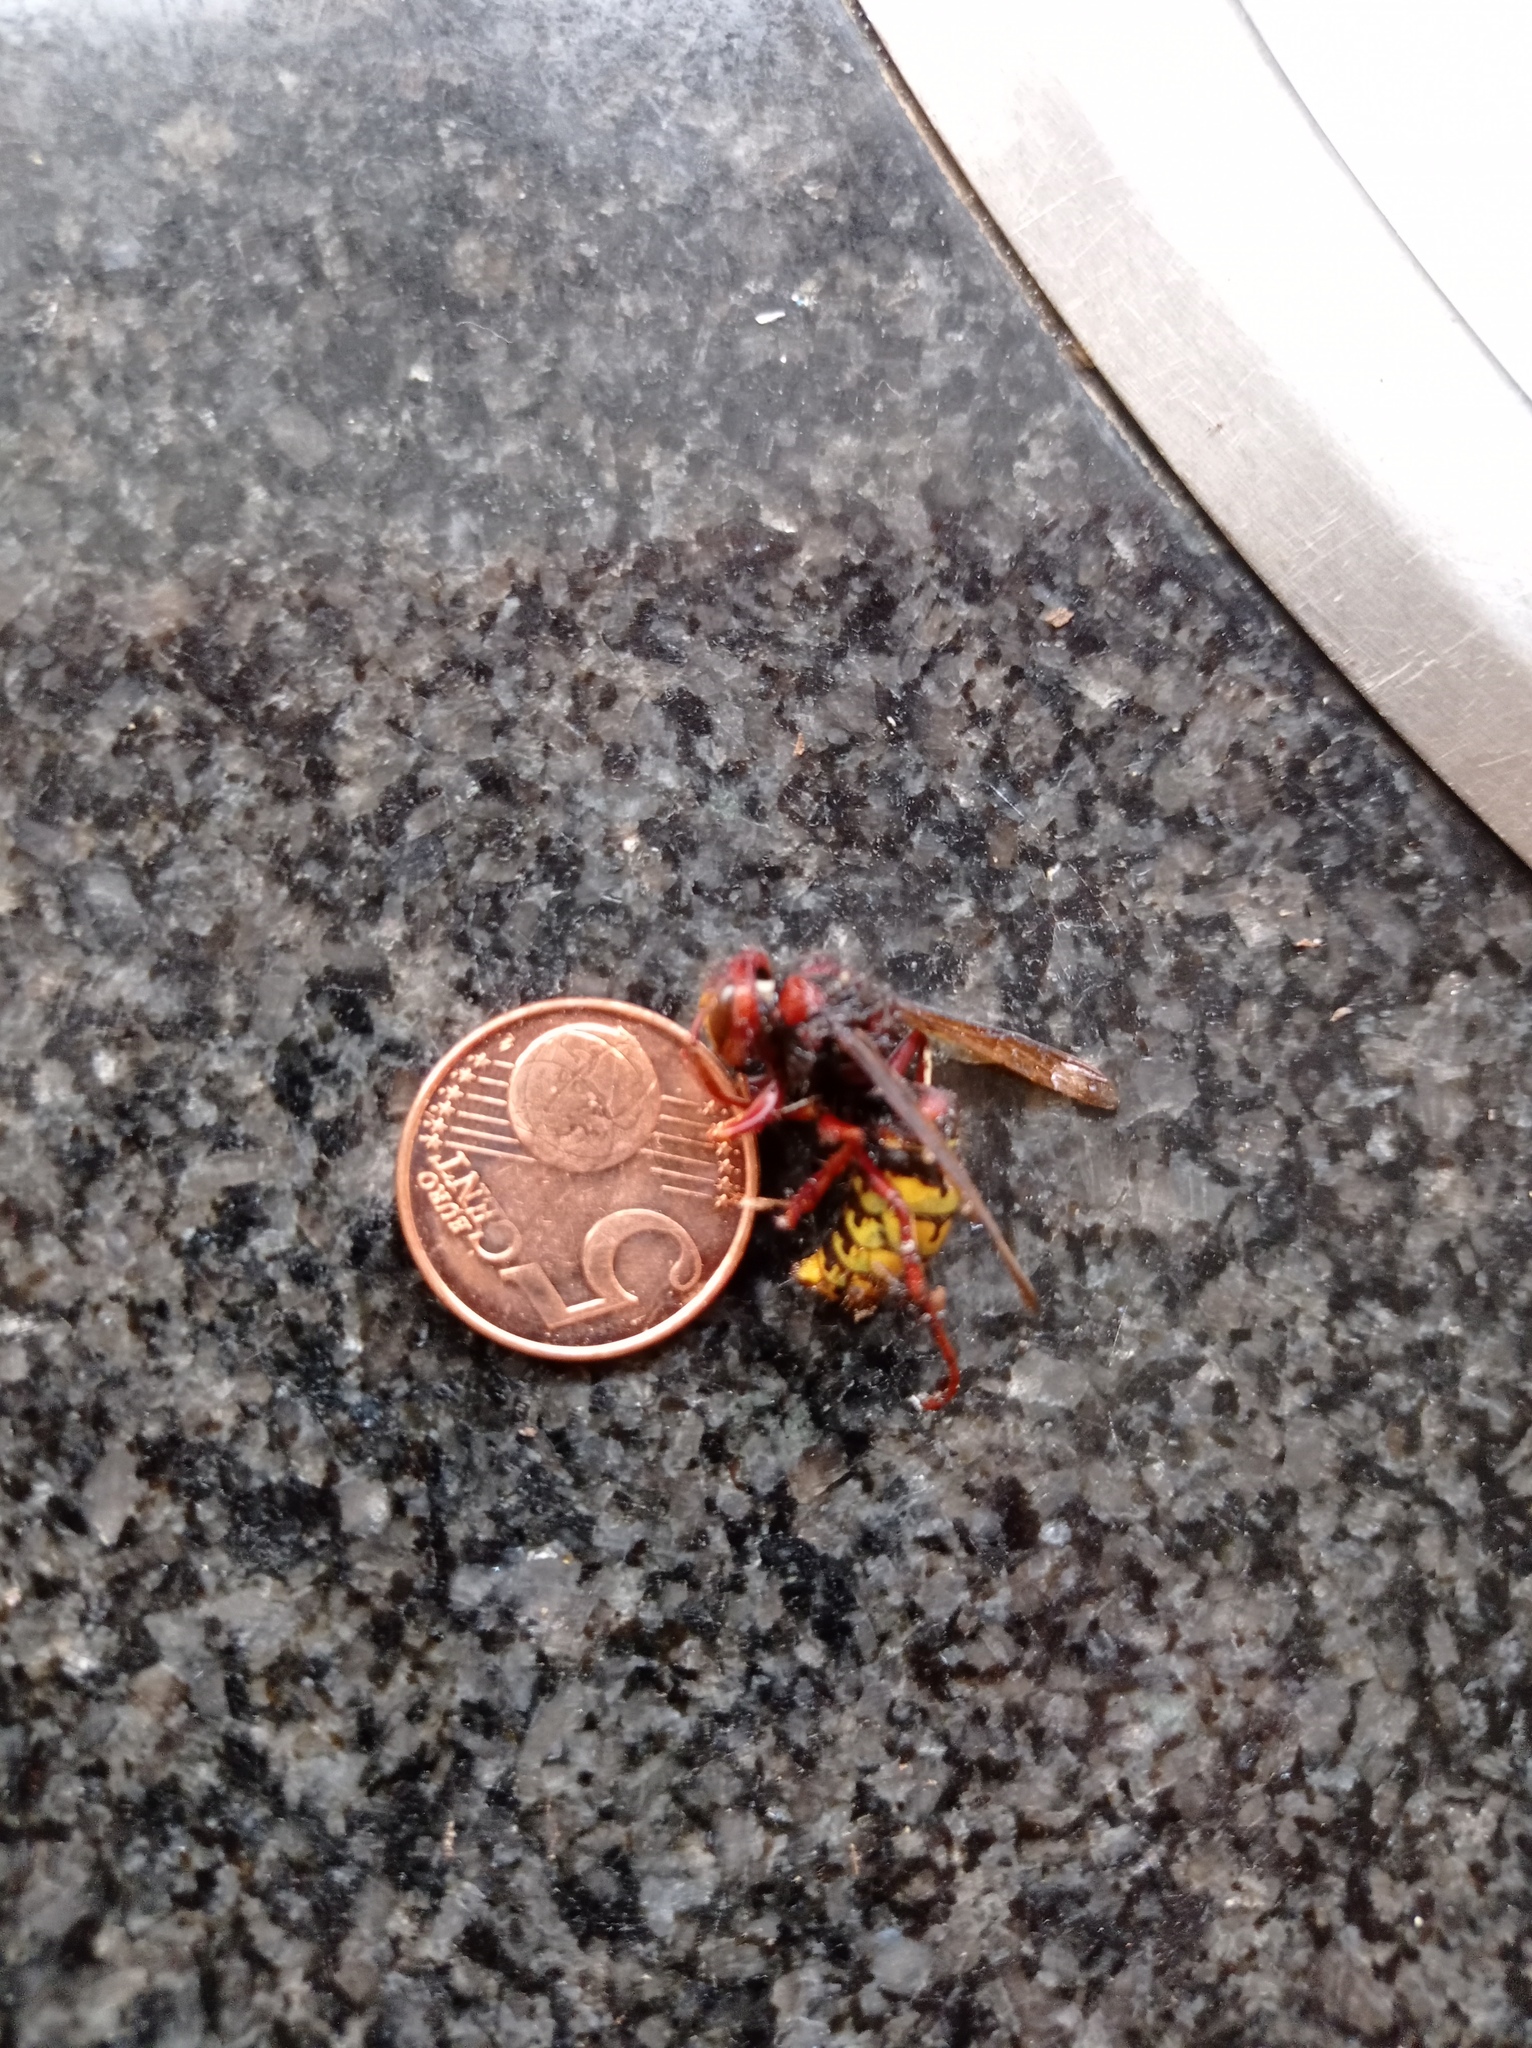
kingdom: Animalia
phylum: Arthropoda
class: Insecta
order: Hymenoptera
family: Vespidae
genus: Vespa
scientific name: Vespa crabro
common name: Hornet
